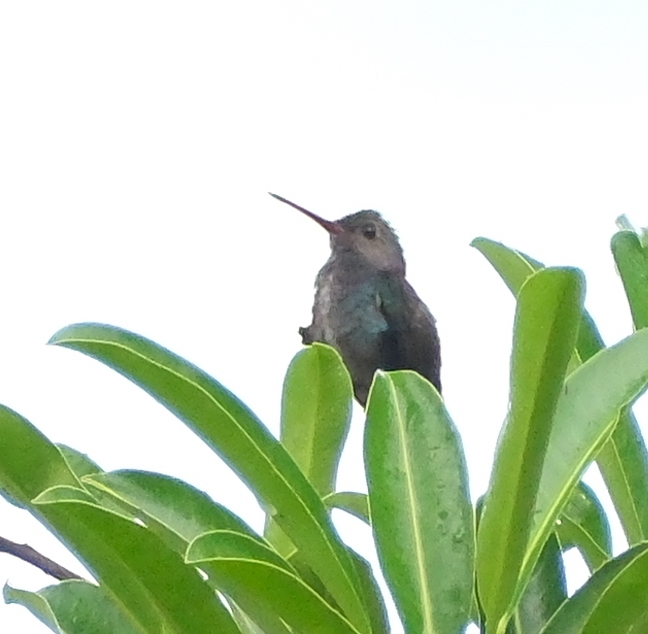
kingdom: Animalia
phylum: Chordata
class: Aves
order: Apodiformes
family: Trochilidae
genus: Chionomesa
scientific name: Chionomesa lactea
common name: Sapphire-spangled emerald
